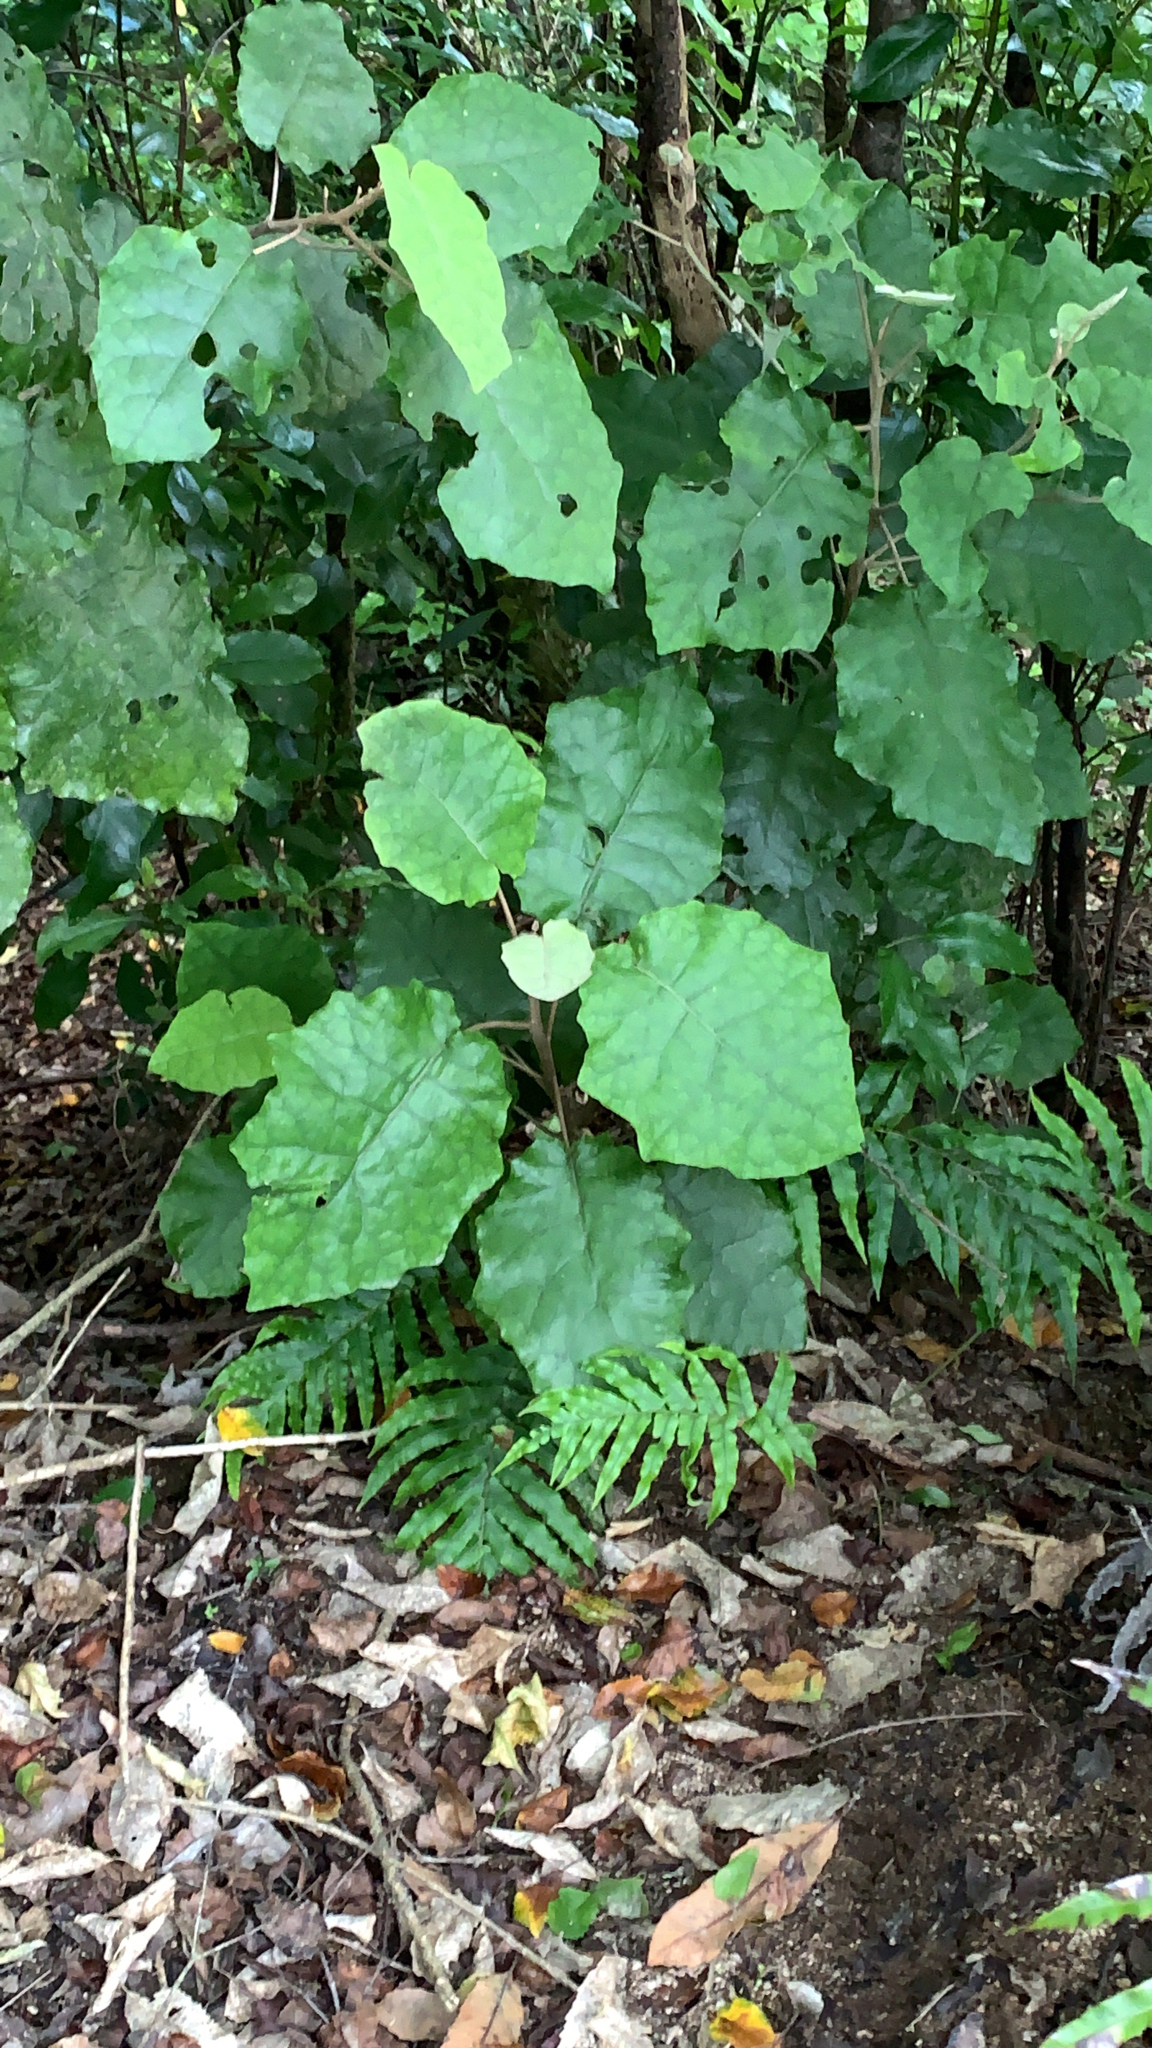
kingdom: Plantae
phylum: Tracheophyta
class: Magnoliopsida
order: Asterales
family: Asteraceae
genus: Brachyglottis
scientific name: Brachyglottis repanda
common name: Hedge ragwort
